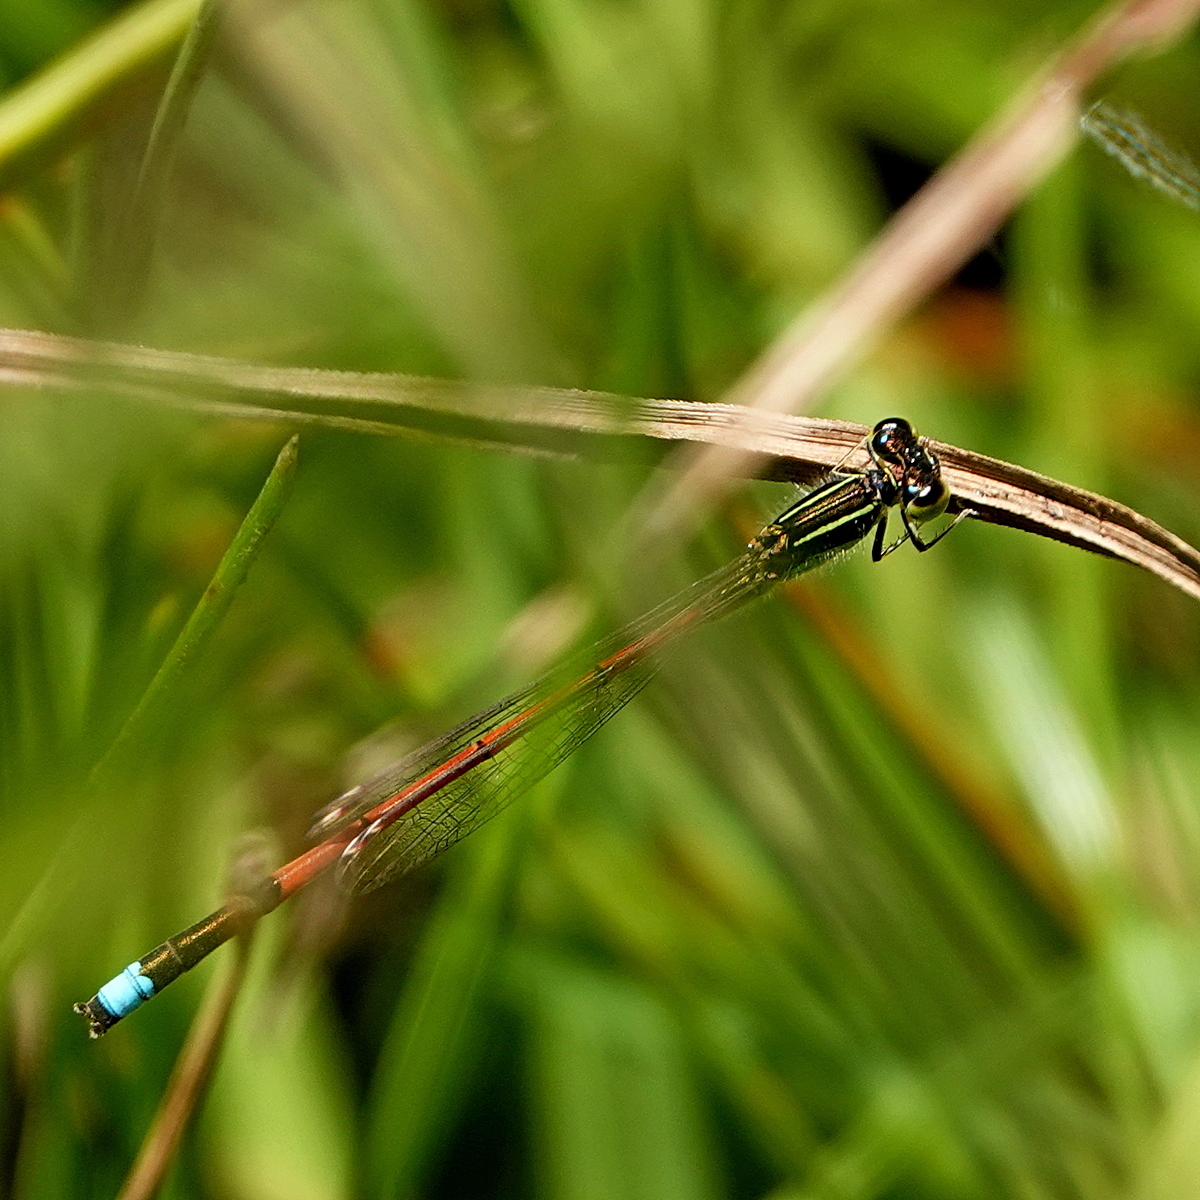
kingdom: Animalia
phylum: Arthropoda
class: Insecta
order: Odonata
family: Coenagrionidae
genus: Ischnura
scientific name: Ischnura aurora
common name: Gossamer damselfly
